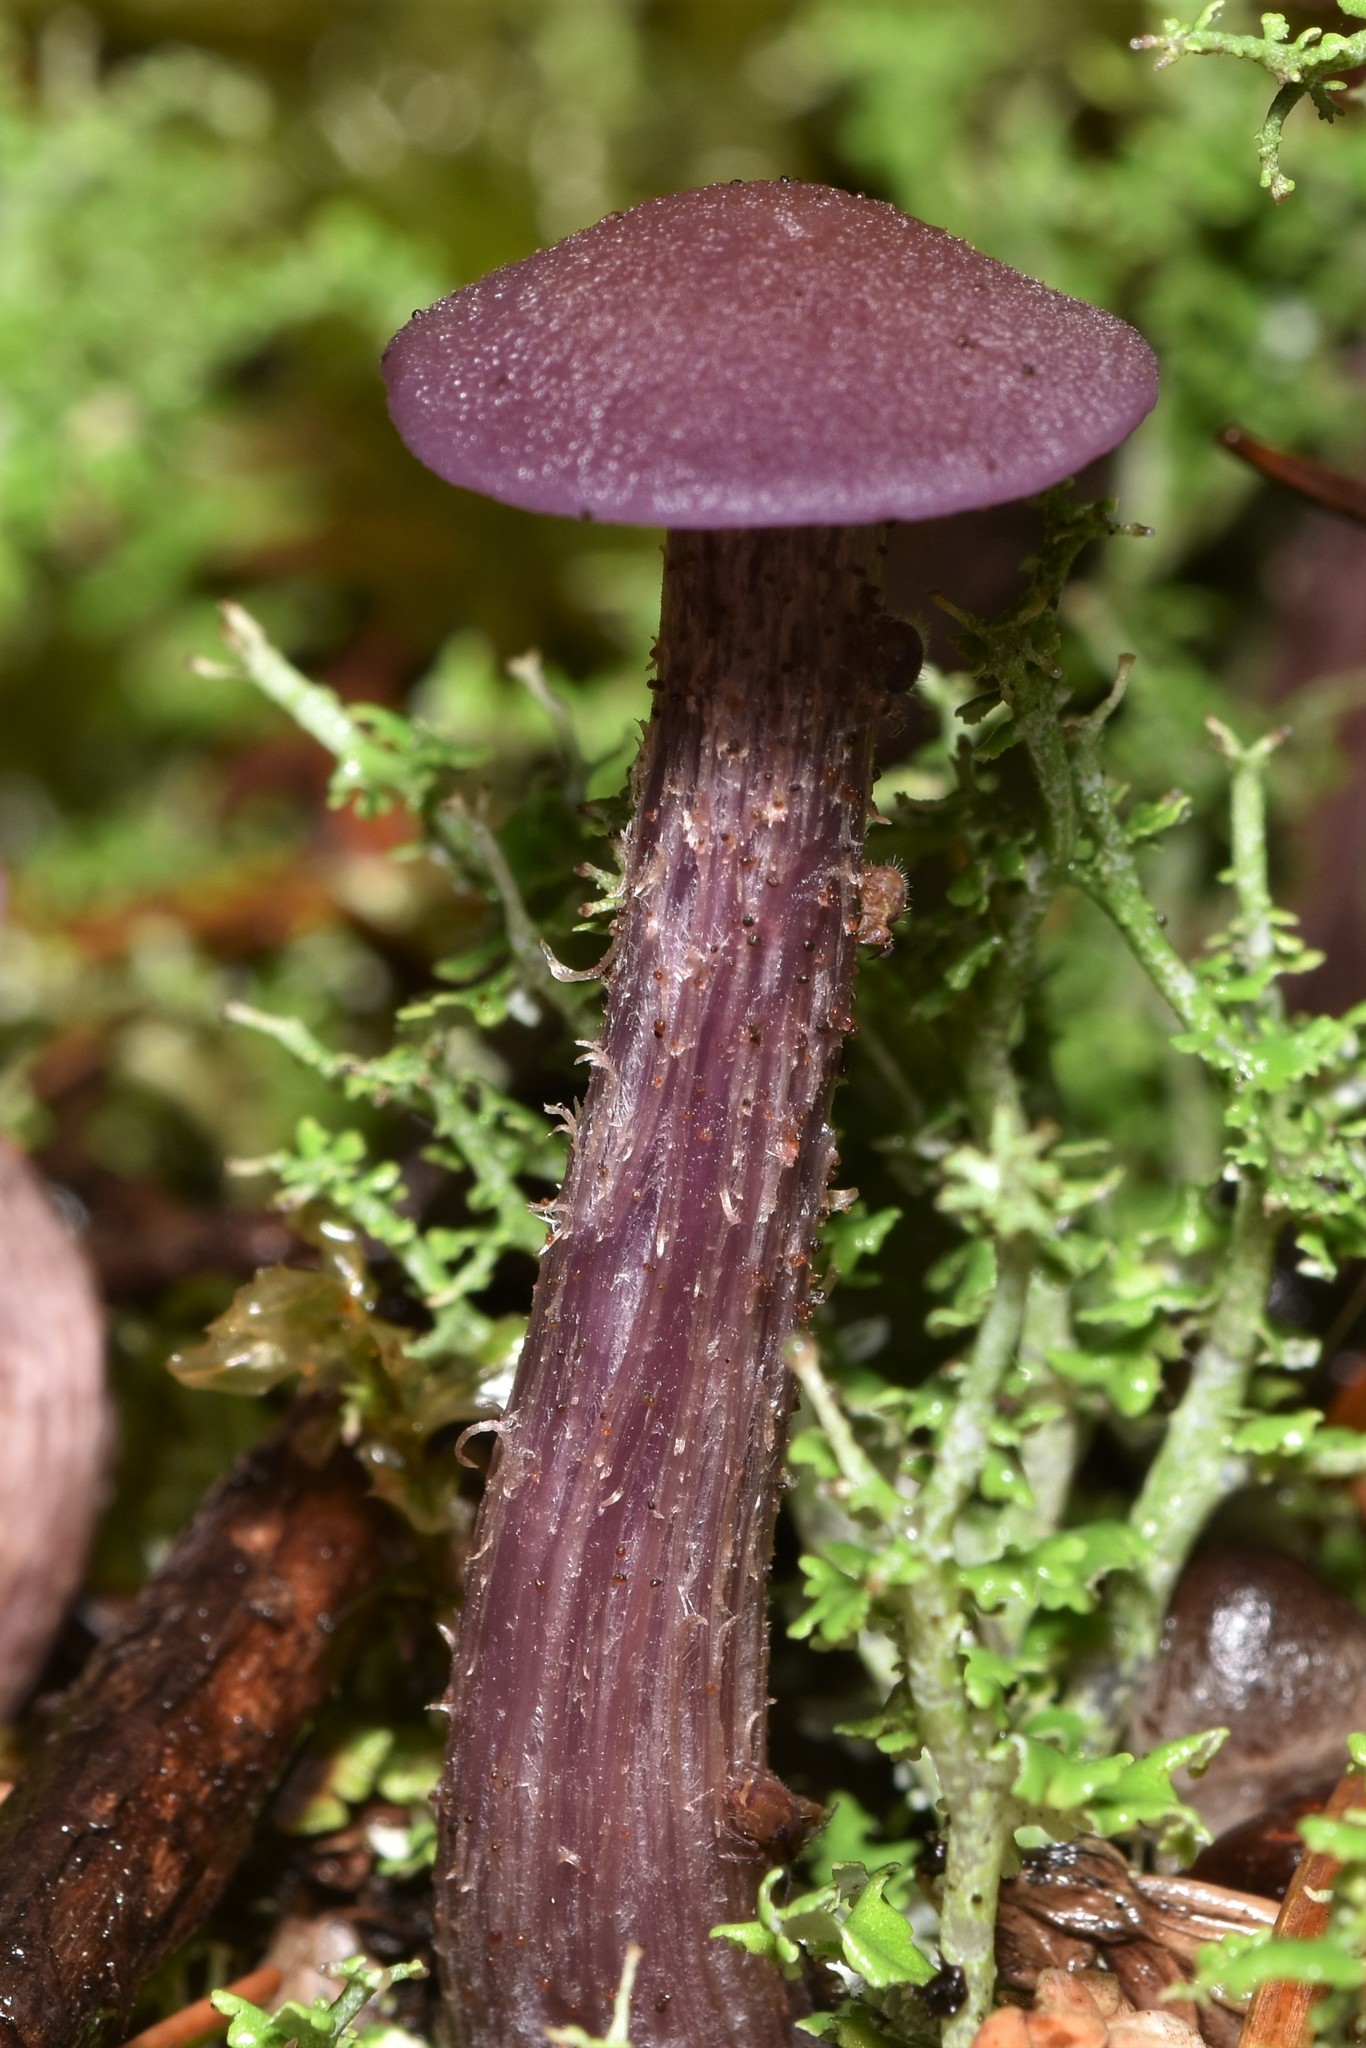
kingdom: Fungi
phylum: Basidiomycota
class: Agaricomycetes
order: Agaricales
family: Hydnangiaceae
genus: Laccaria
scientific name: Laccaria amethysteo-occidentalis
